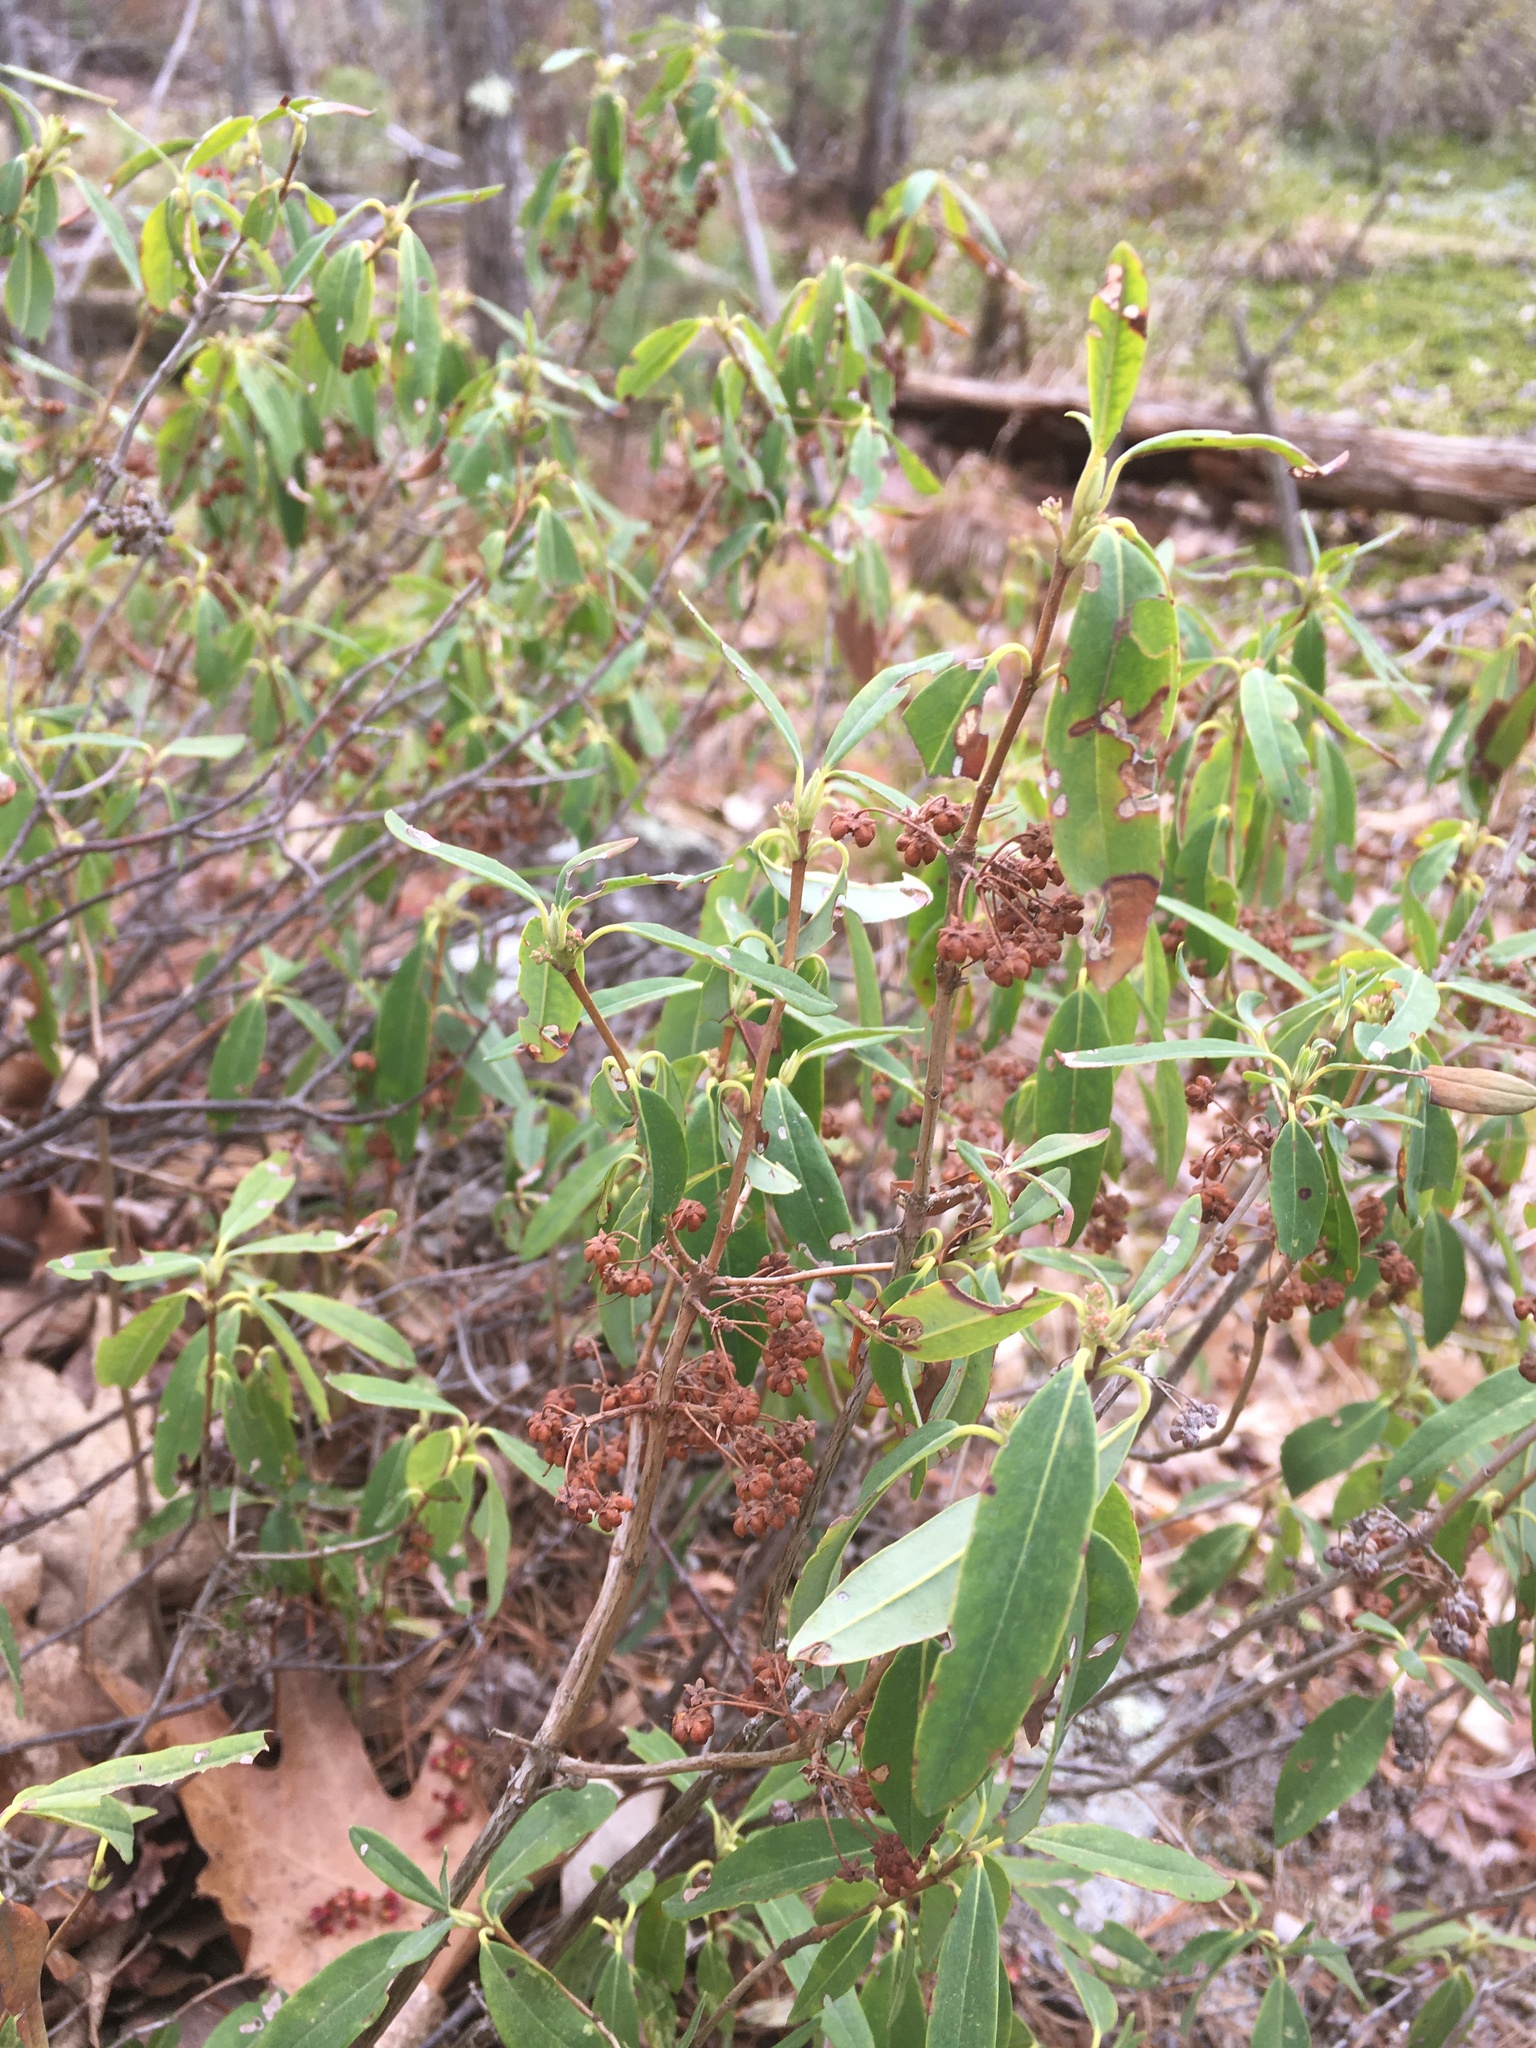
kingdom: Plantae
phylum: Tracheophyta
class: Magnoliopsida
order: Ericales
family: Ericaceae
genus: Kalmia
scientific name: Kalmia angustifolia
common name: Sheep-laurel
